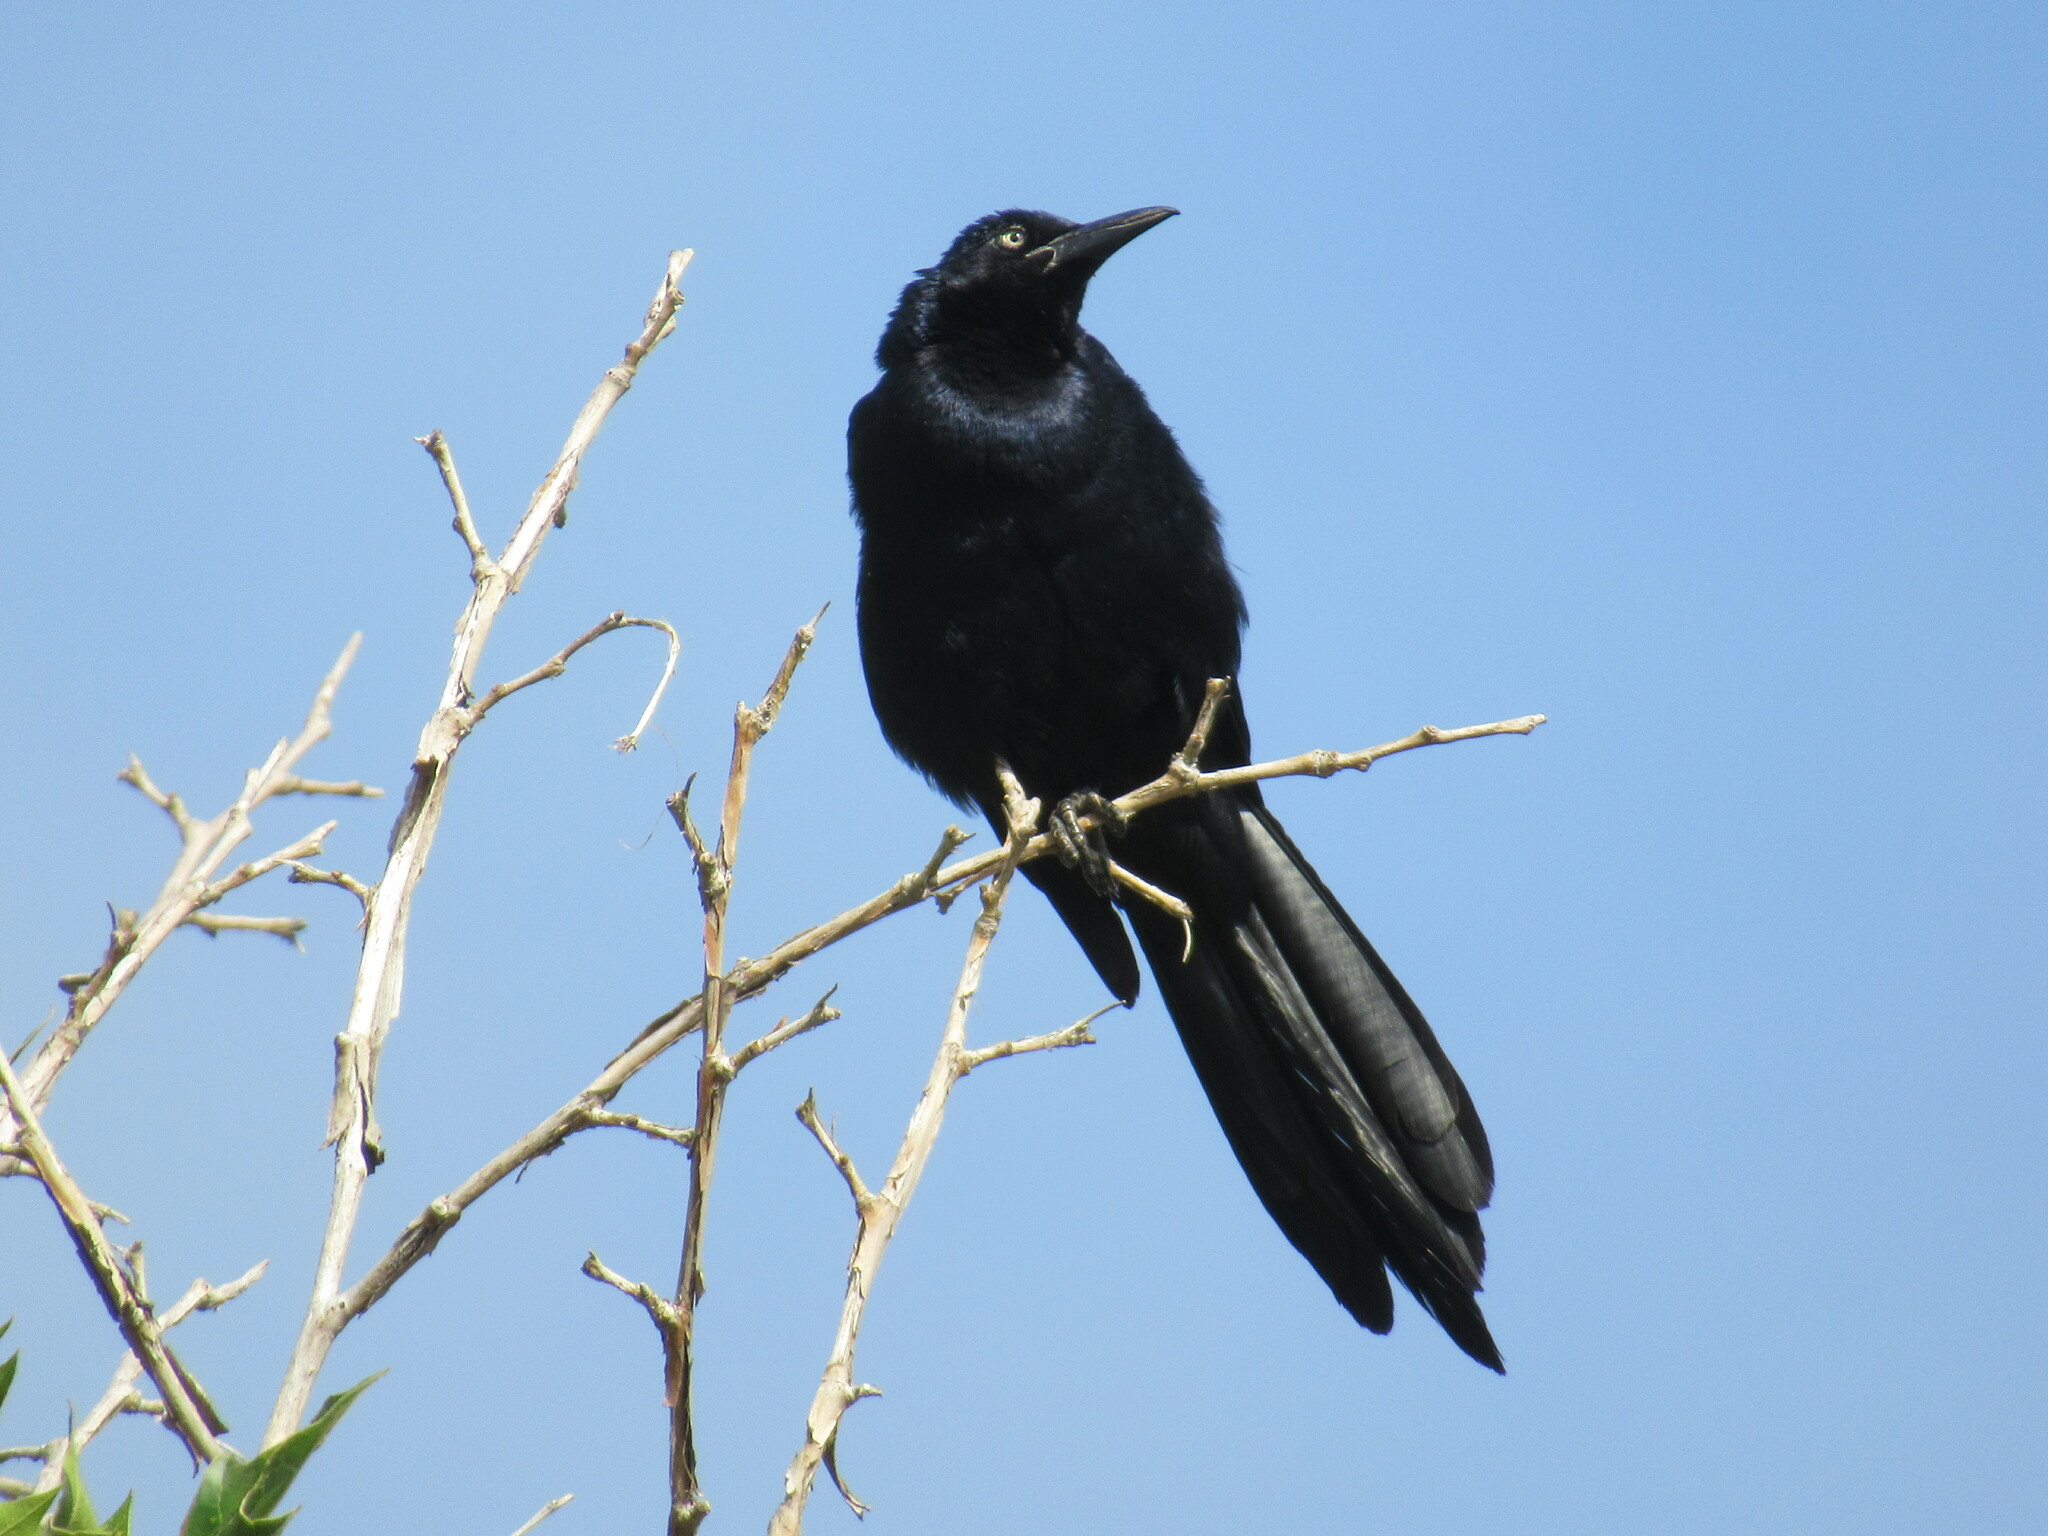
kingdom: Animalia
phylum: Chordata
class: Aves
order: Passeriformes
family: Icteridae
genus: Quiscalus
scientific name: Quiscalus mexicanus
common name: Great-tailed grackle
